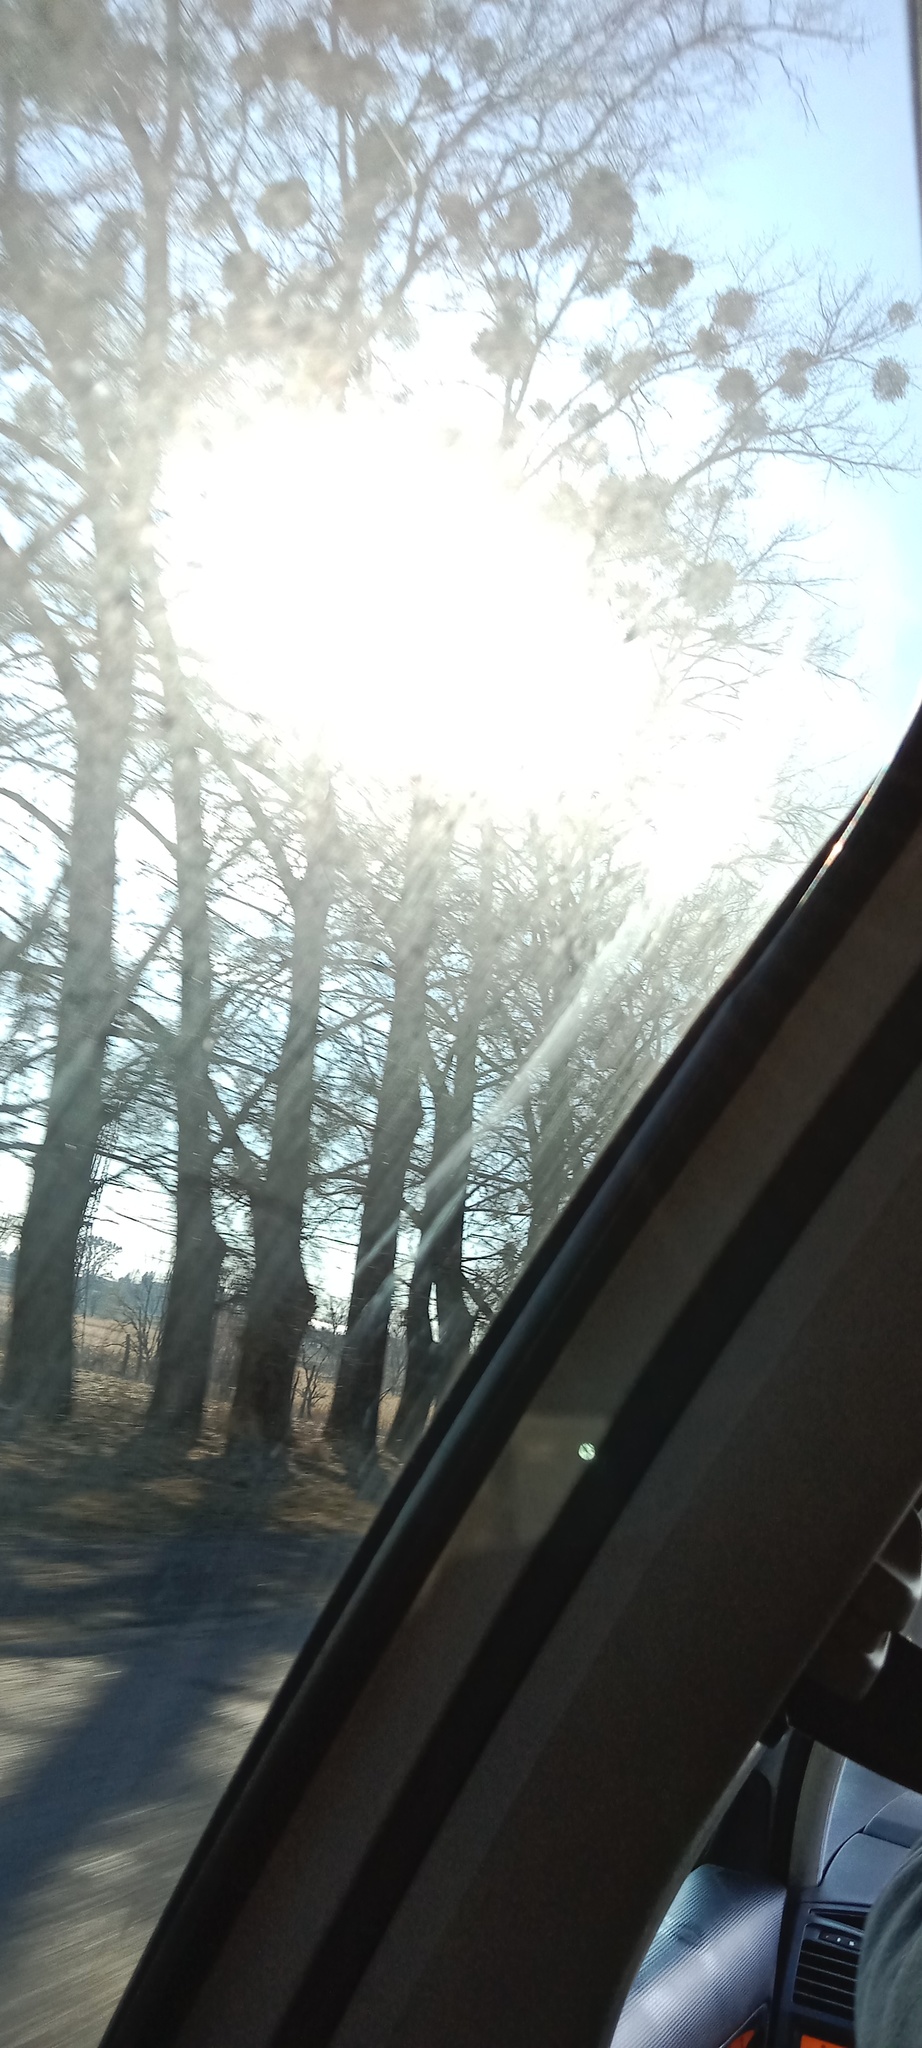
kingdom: Plantae
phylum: Tracheophyta
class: Magnoliopsida
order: Santalales
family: Viscaceae
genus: Viscum
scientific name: Viscum album
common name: Mistletoe
